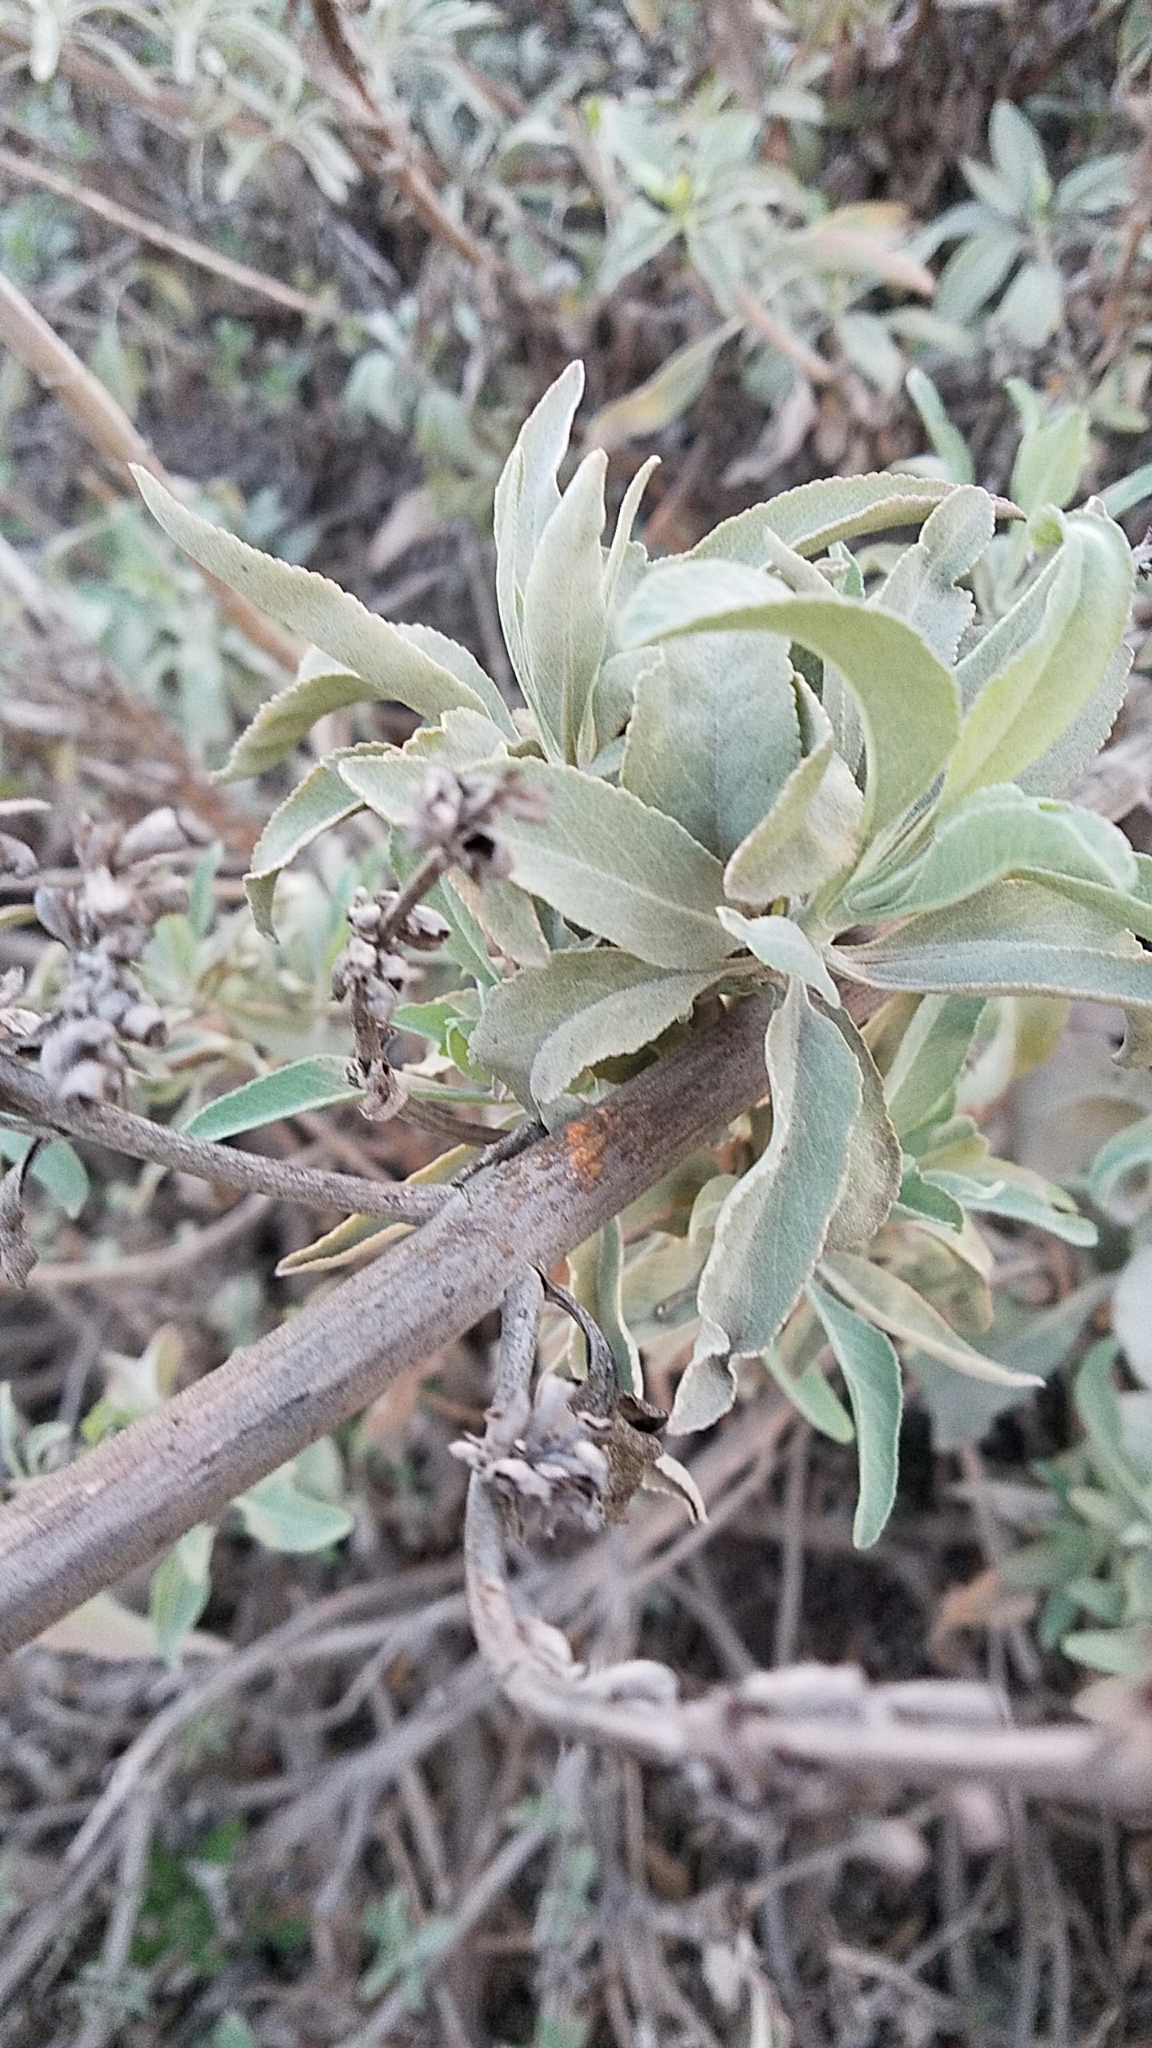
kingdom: Plantae
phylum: Tracheophyta
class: Magnoliopsida
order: Lamiales
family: Lamiaceae
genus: Salvia
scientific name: Salvia apiana
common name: White sage
